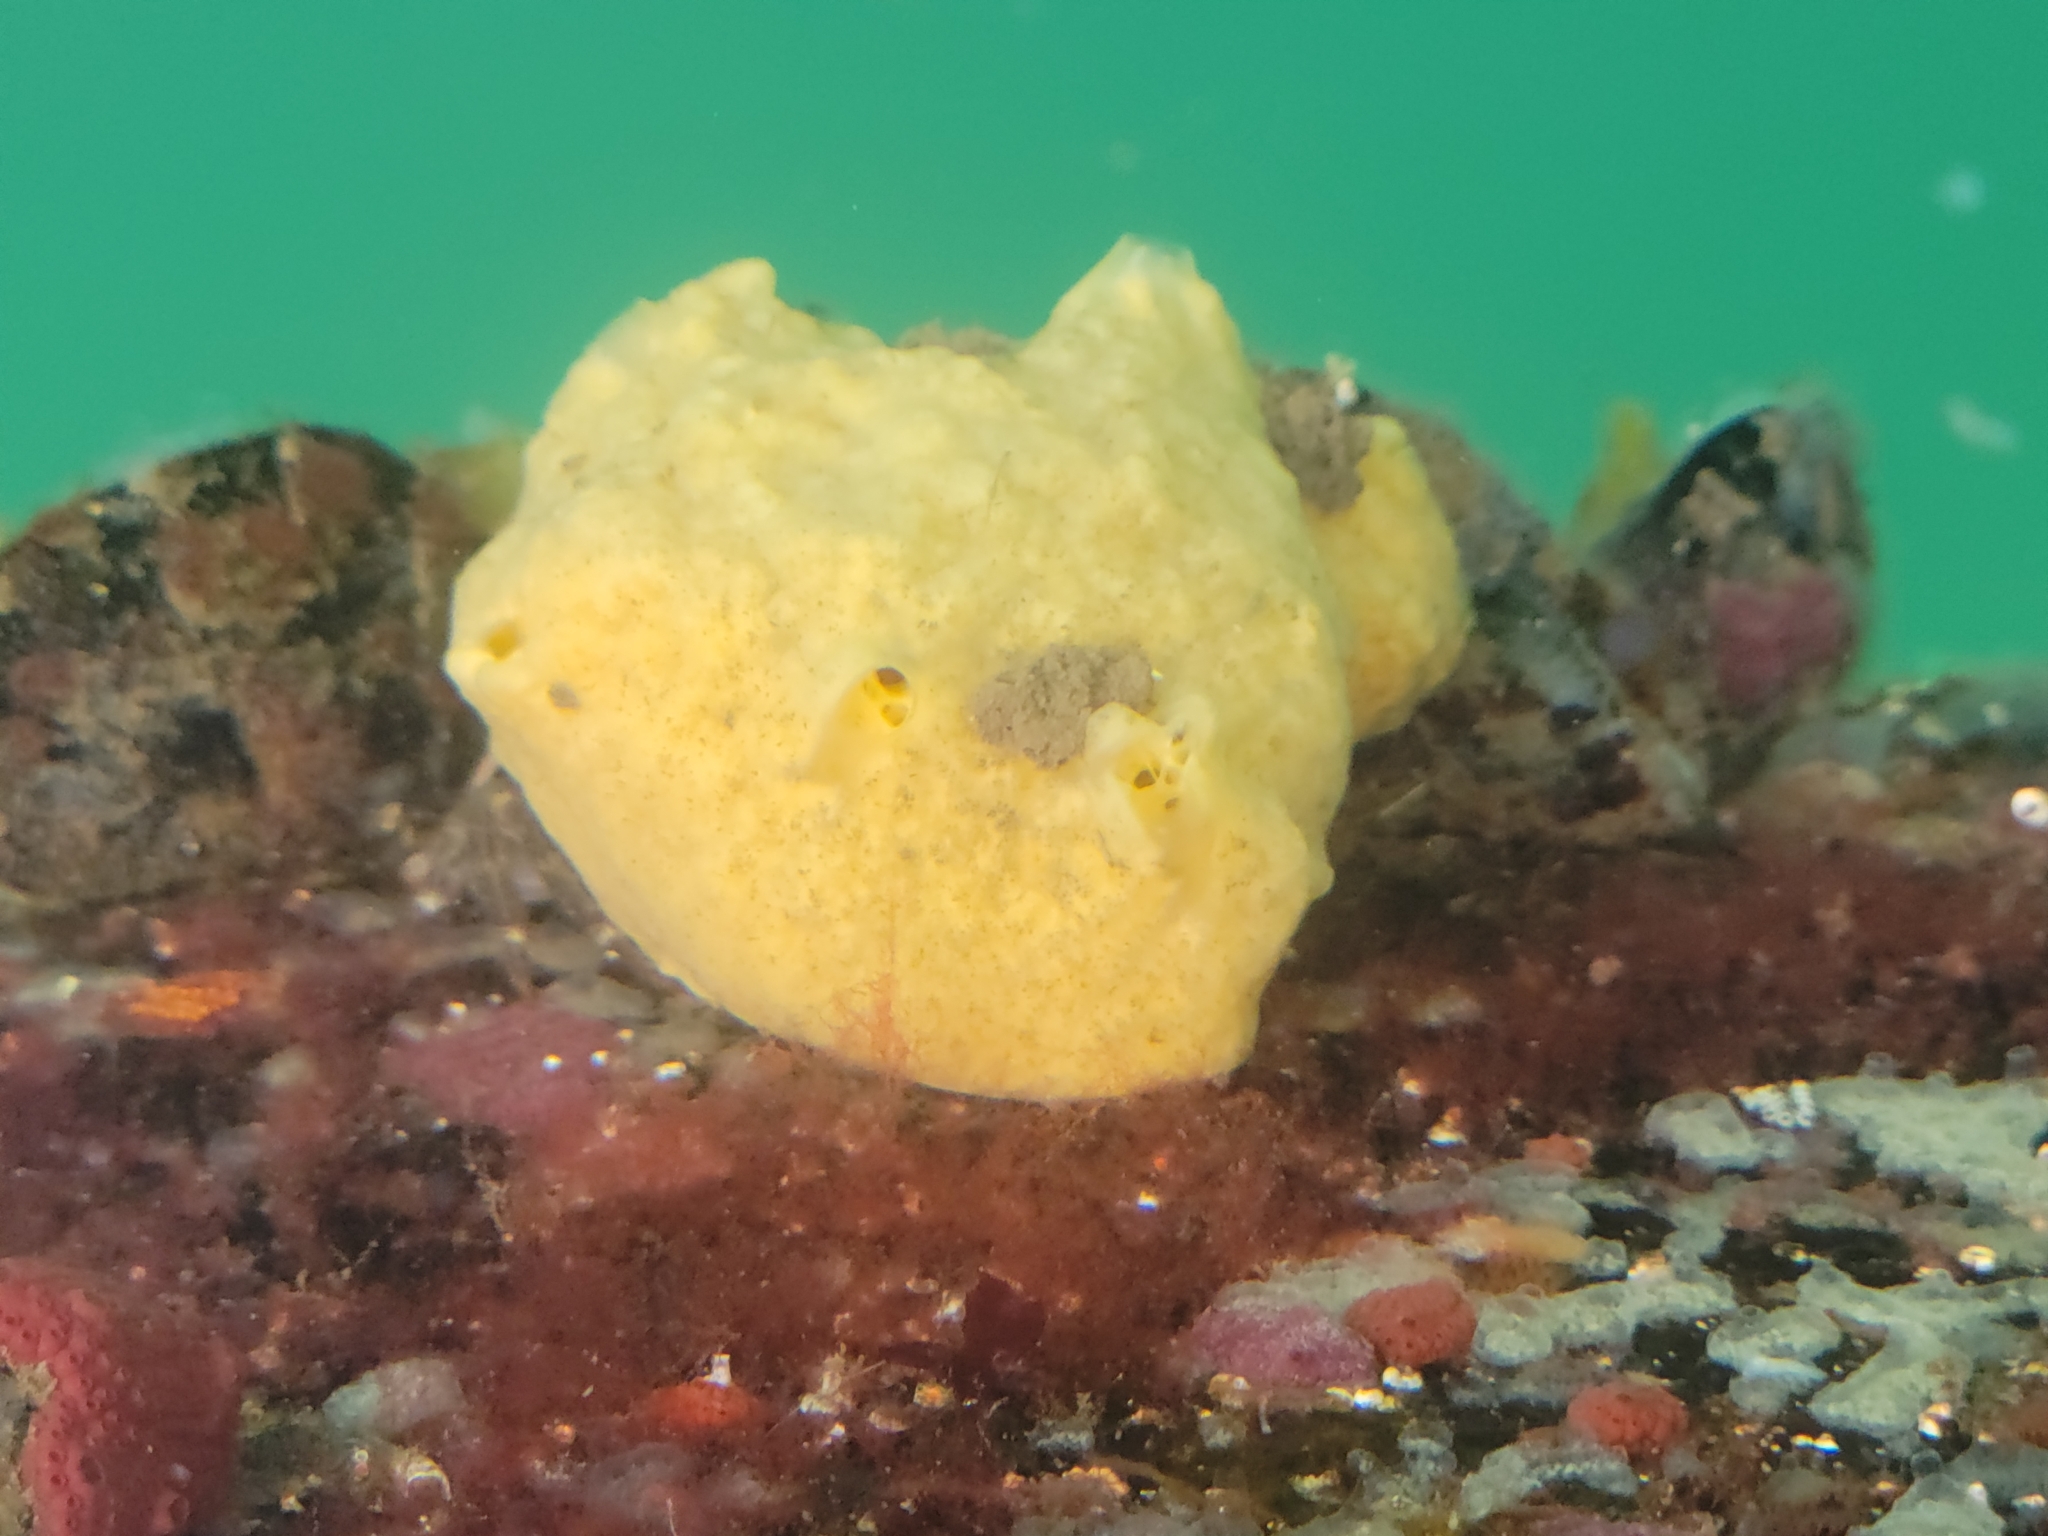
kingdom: Animalia
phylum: Porifera
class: Demospongiae
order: Suberitida
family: Halichondriidae
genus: Hymeniacidon
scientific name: Hymeniacidon perlevis
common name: Crumb-of-bread sponge
